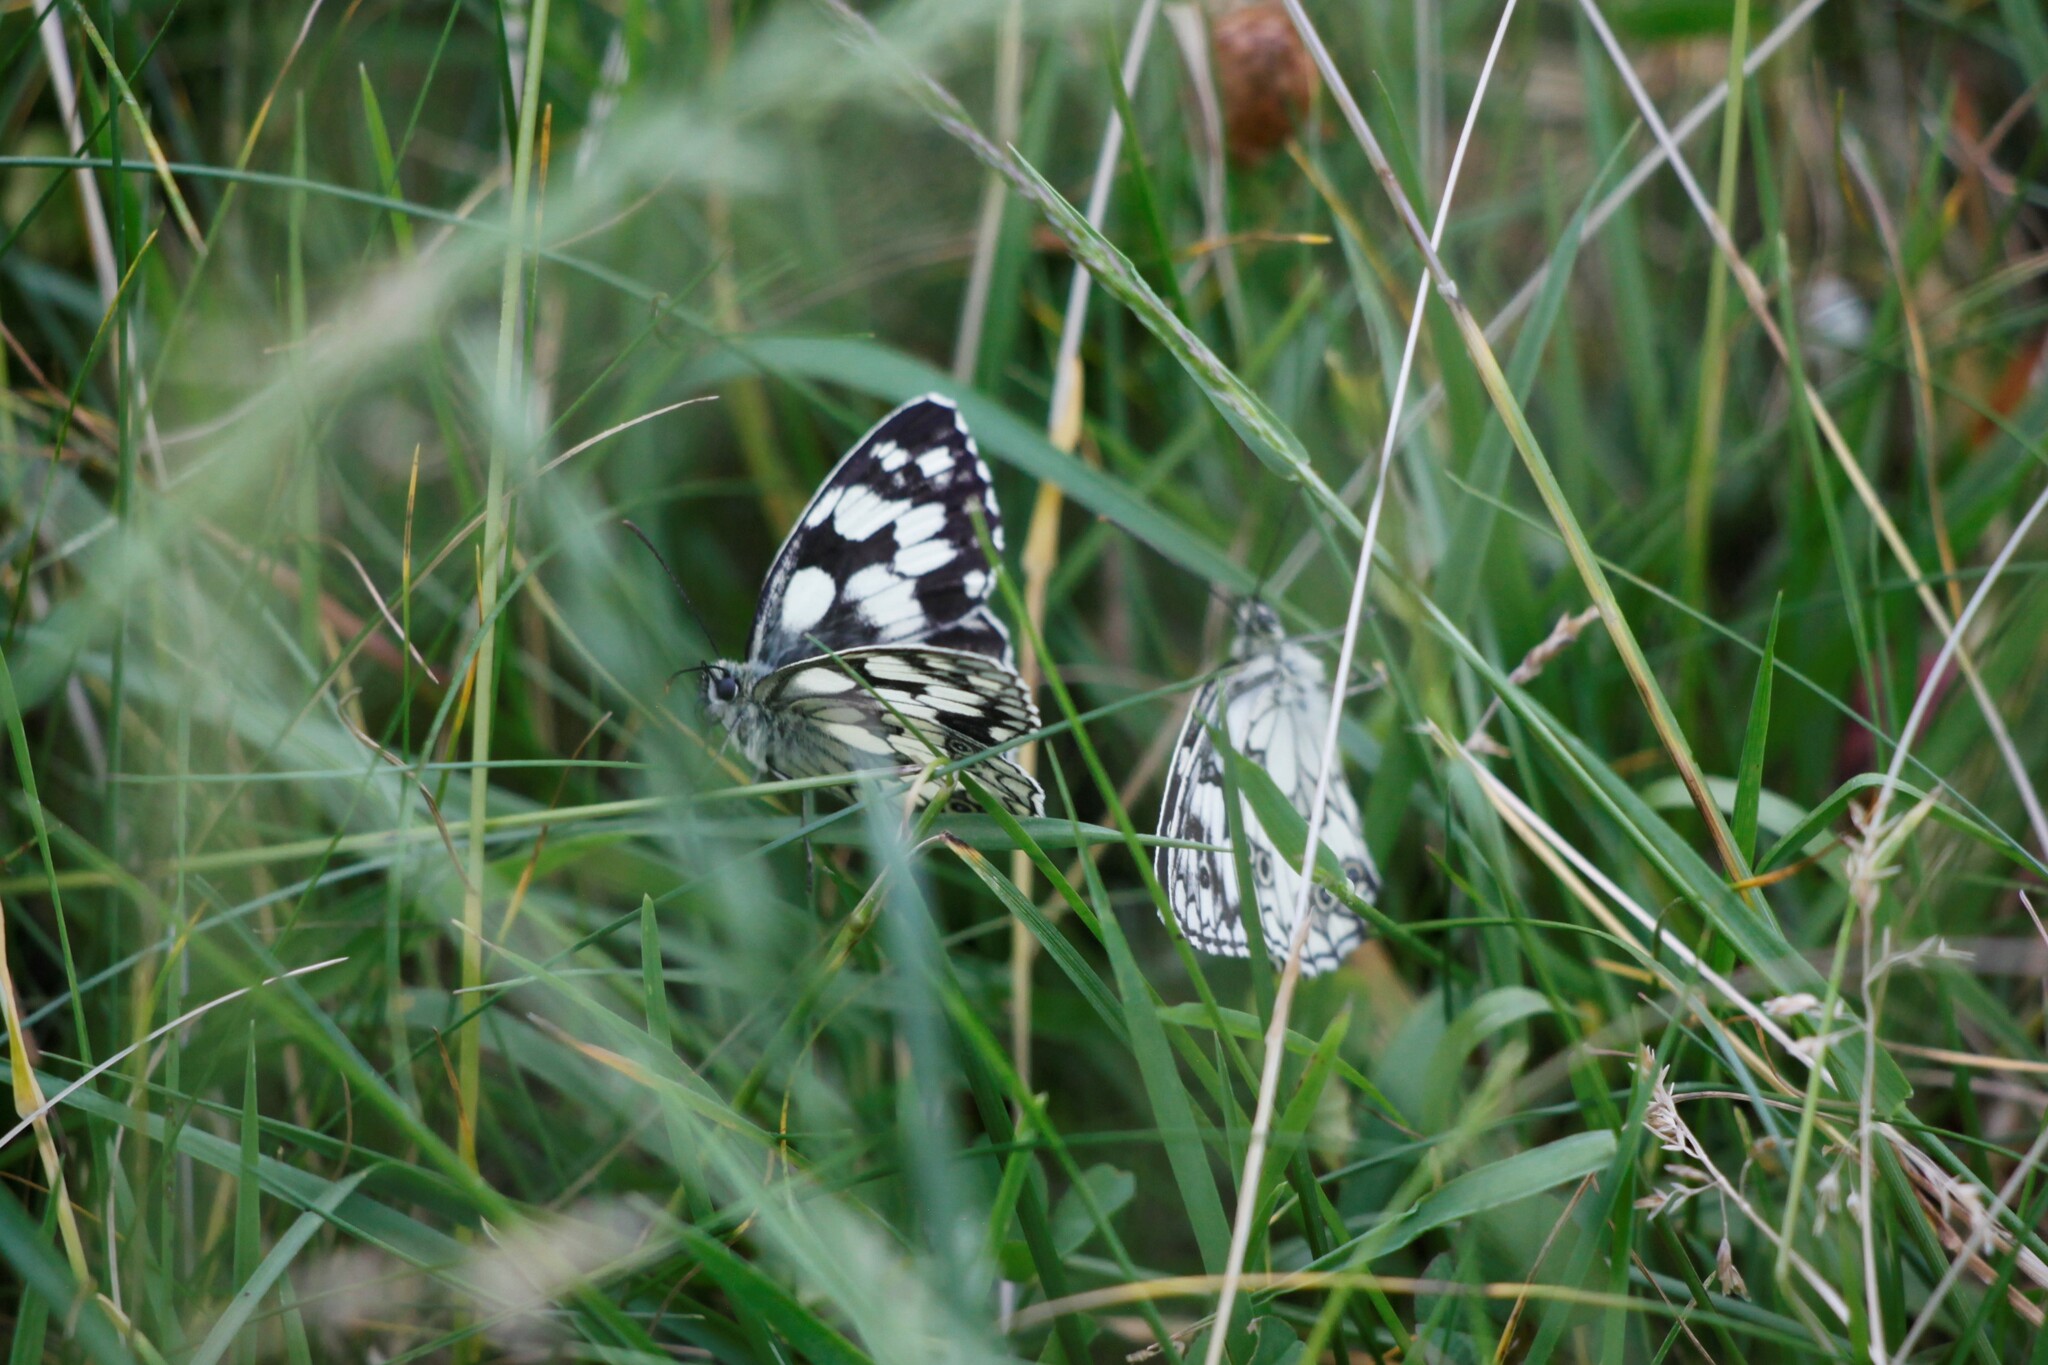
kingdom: Animalia
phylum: Arthropoda
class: Insecta
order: Lepidoptera
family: Nymphalidae
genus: Melanargia
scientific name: Melanargia galathea
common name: Marbled white
